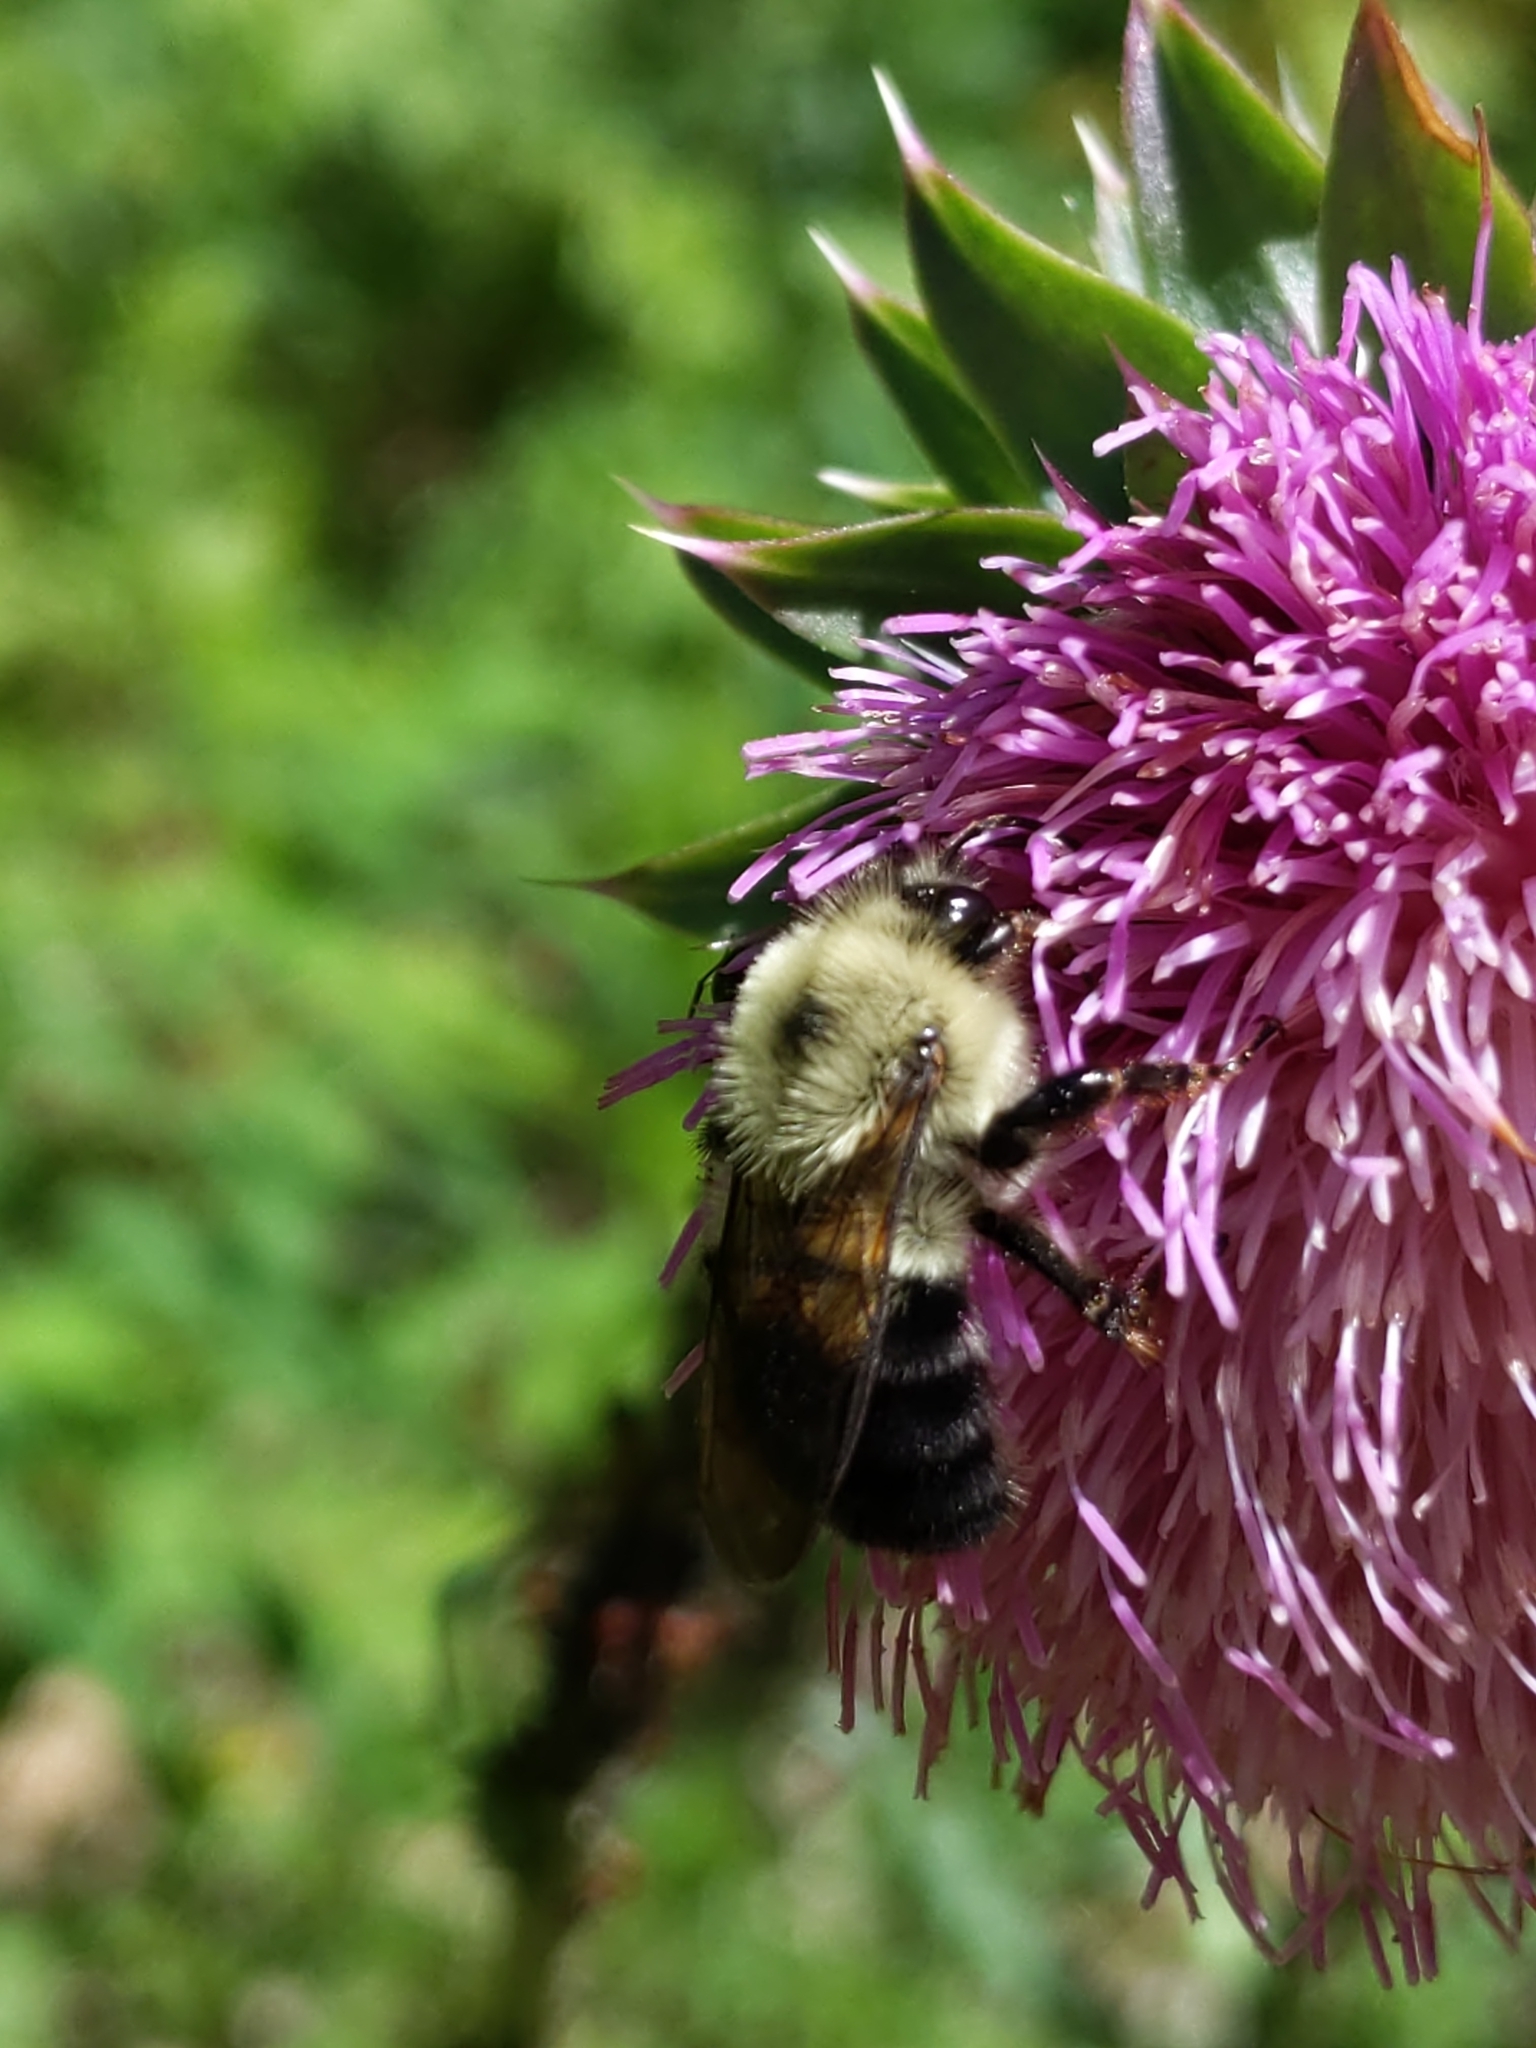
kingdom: Animalia
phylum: Arthropoda
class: Insecta
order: Hymenoptera
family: Apidae
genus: Bombus
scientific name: Bombus bimaculatus
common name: Two-spotted bumble bee
